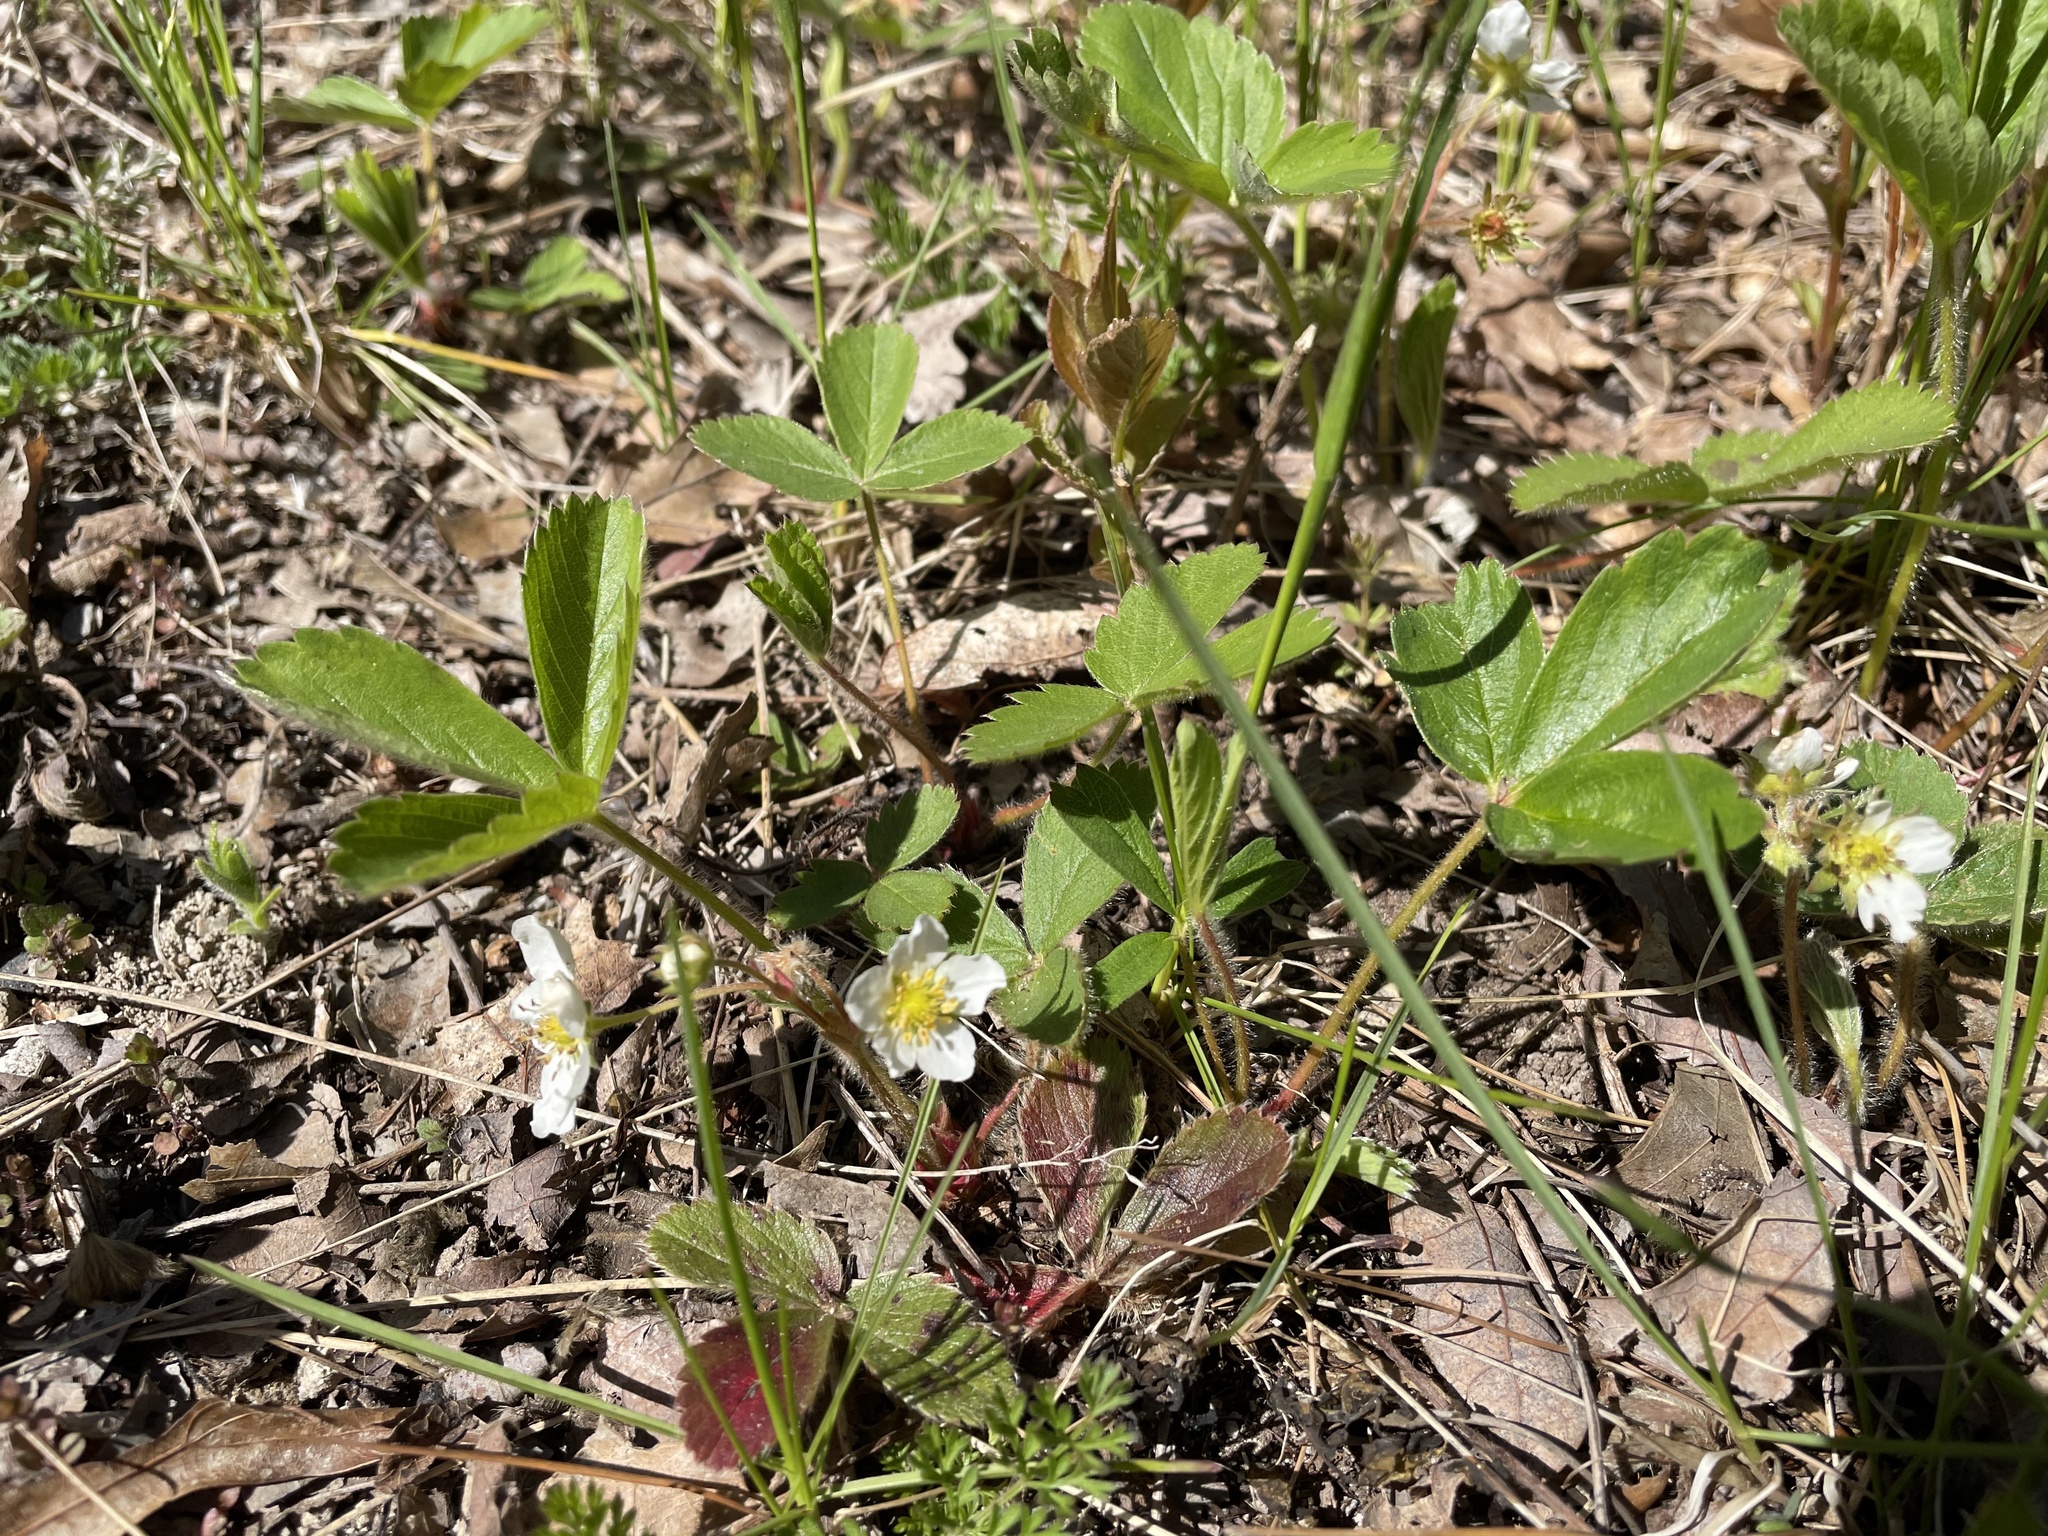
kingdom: Plantae
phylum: Tracheophyta
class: Magnoliopsida
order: Rosales
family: Rosaceae
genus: Fragaria
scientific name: Fragaria virginiana
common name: Thickleaved wild strawberry
